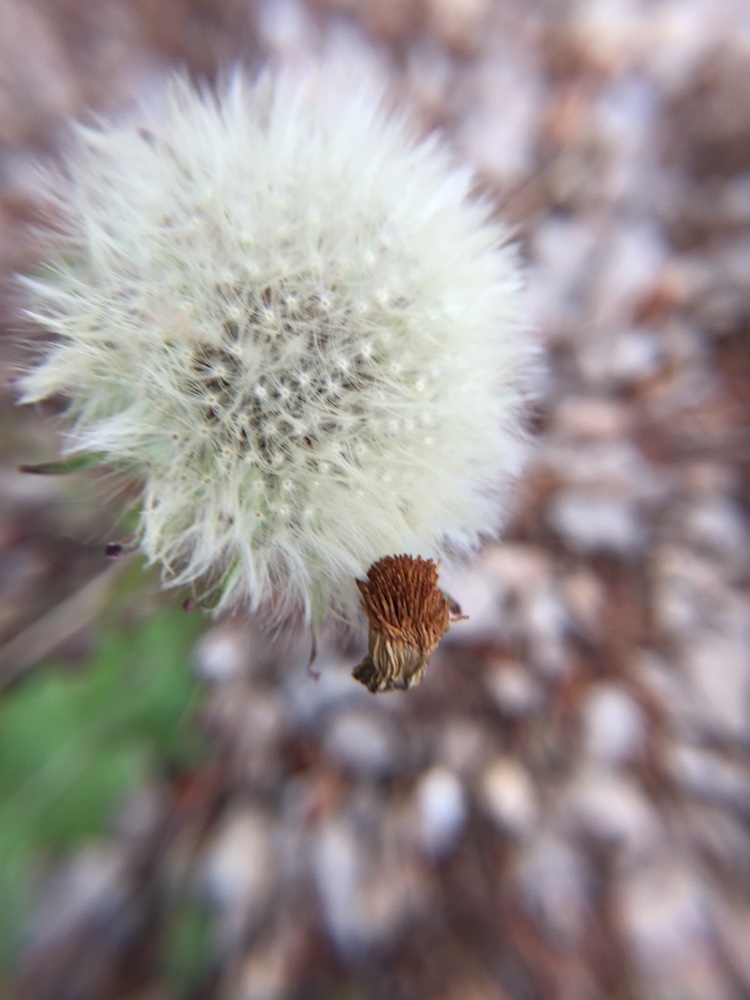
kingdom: Plantae
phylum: Tracheophyta
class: Magnoliopsida
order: Asterales
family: Asteraceae
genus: Taraxacum
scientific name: Taraxacum officinale
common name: Common dandelion
